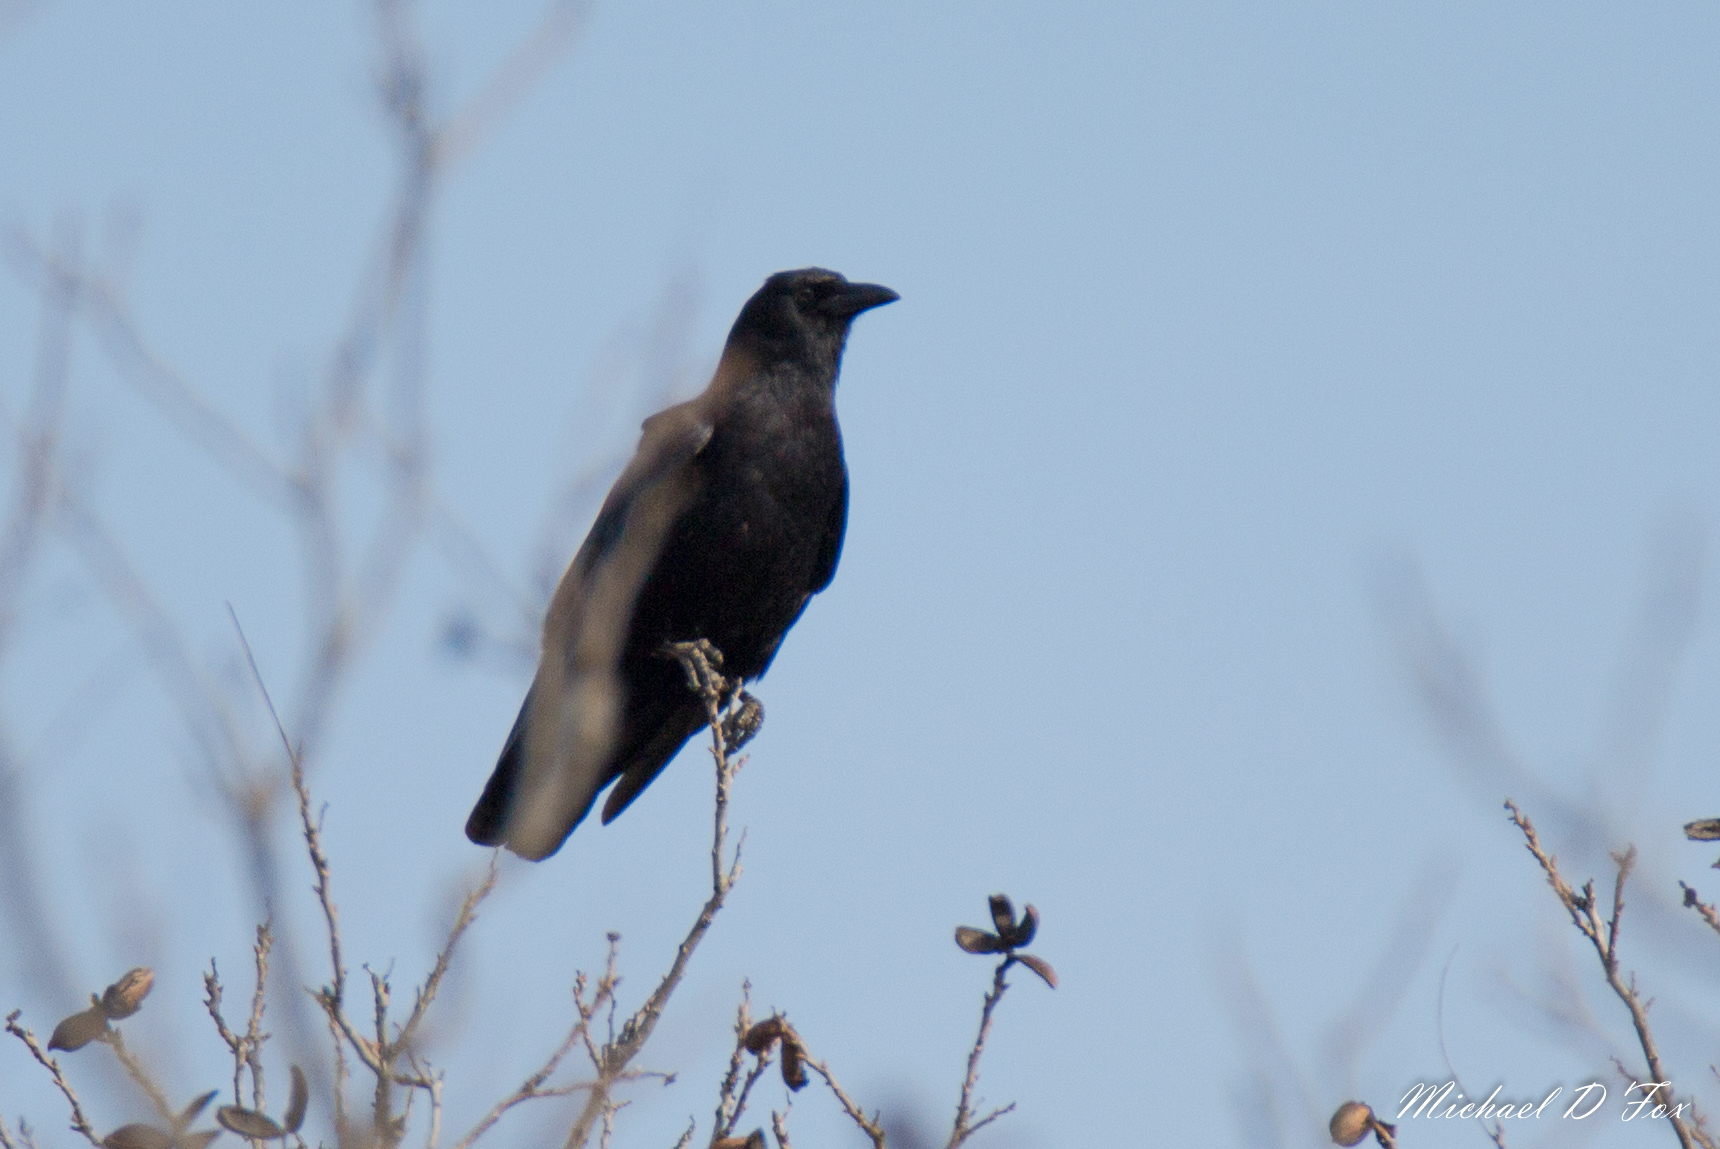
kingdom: Animalia
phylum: Chordata
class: Aves
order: Passeriformes
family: Corvidae
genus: Corvus
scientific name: Corvus brachyrhynchos
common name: American crow
